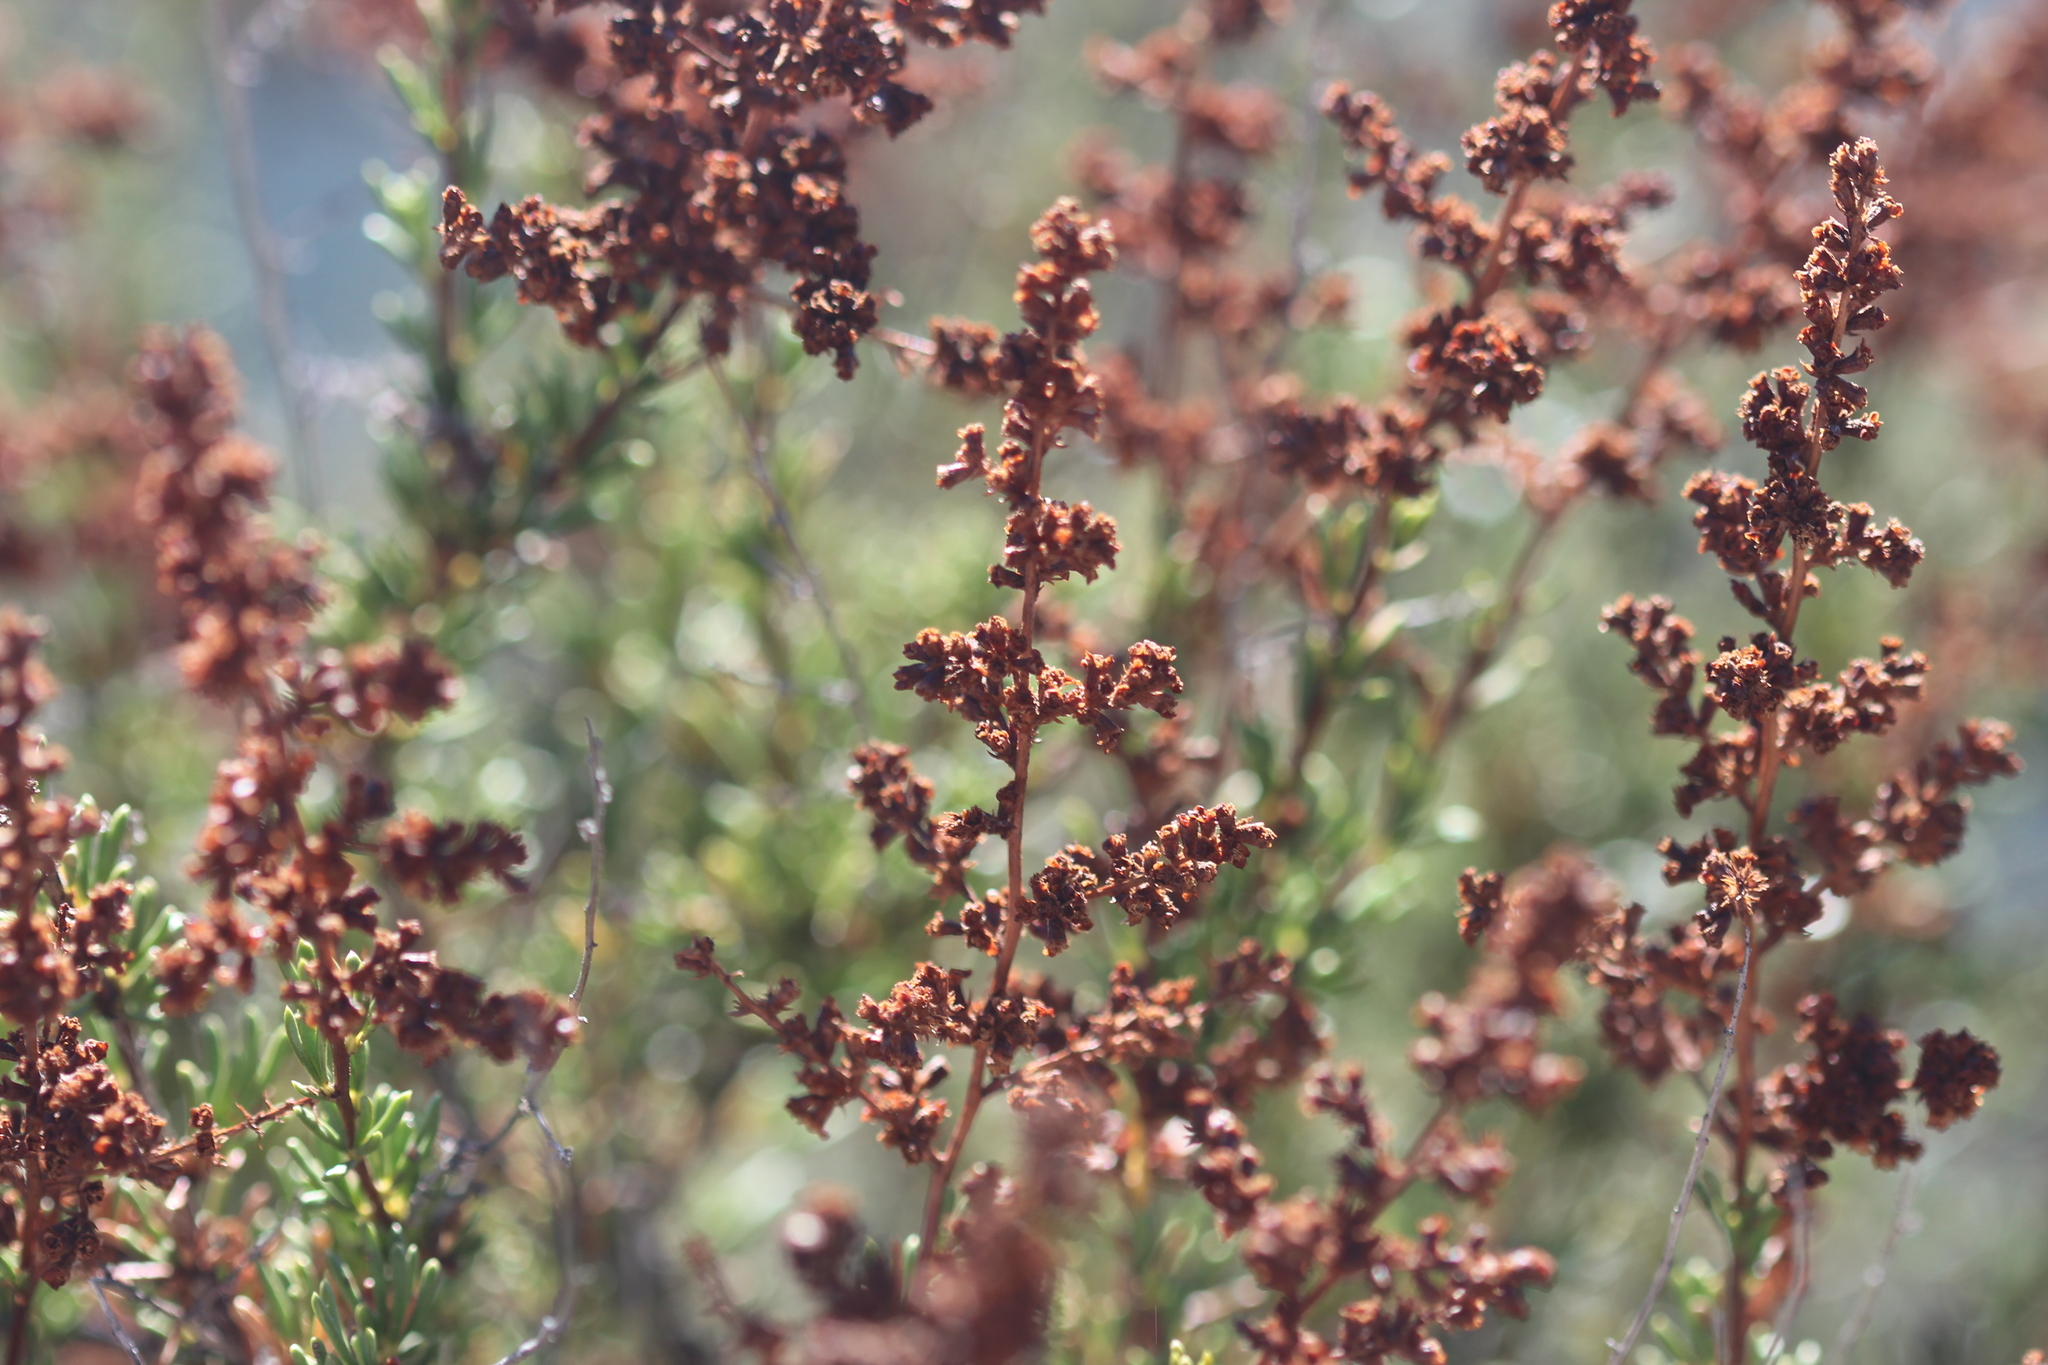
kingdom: Plantae
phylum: Tracheophyta
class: Magnoliopsida
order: Rosales
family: Rosaceae
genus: Adenostoma
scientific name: Adenostoma fasciculatum
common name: Chamise
